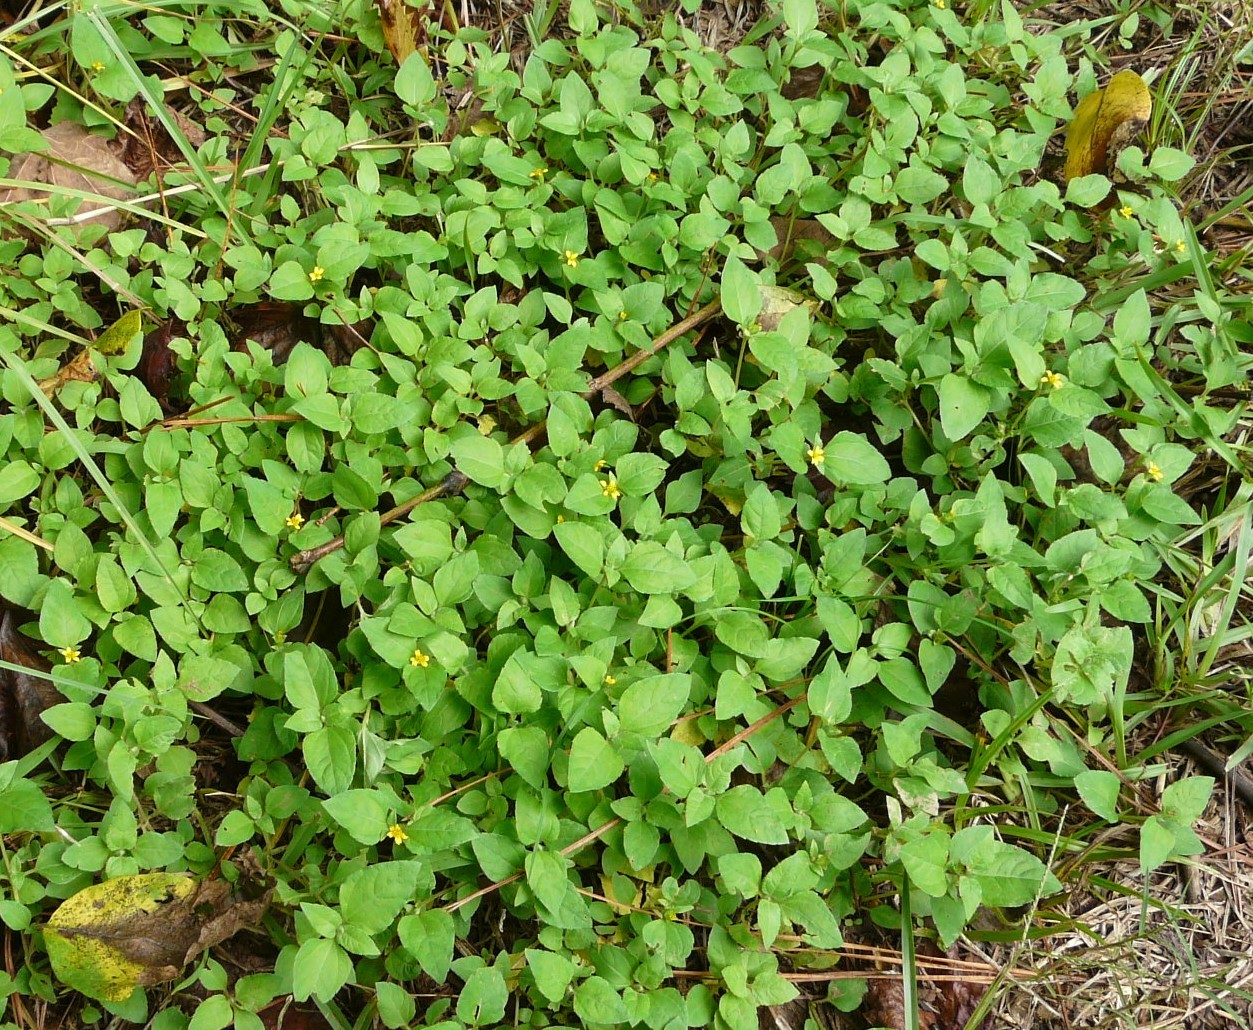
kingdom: Plantae
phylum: Tracheophyta
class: Magnoliopsida
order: Asterales
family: Asteraceae
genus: Calyptocarpus
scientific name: Calyptocarpus vialis
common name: Straggler daisy
